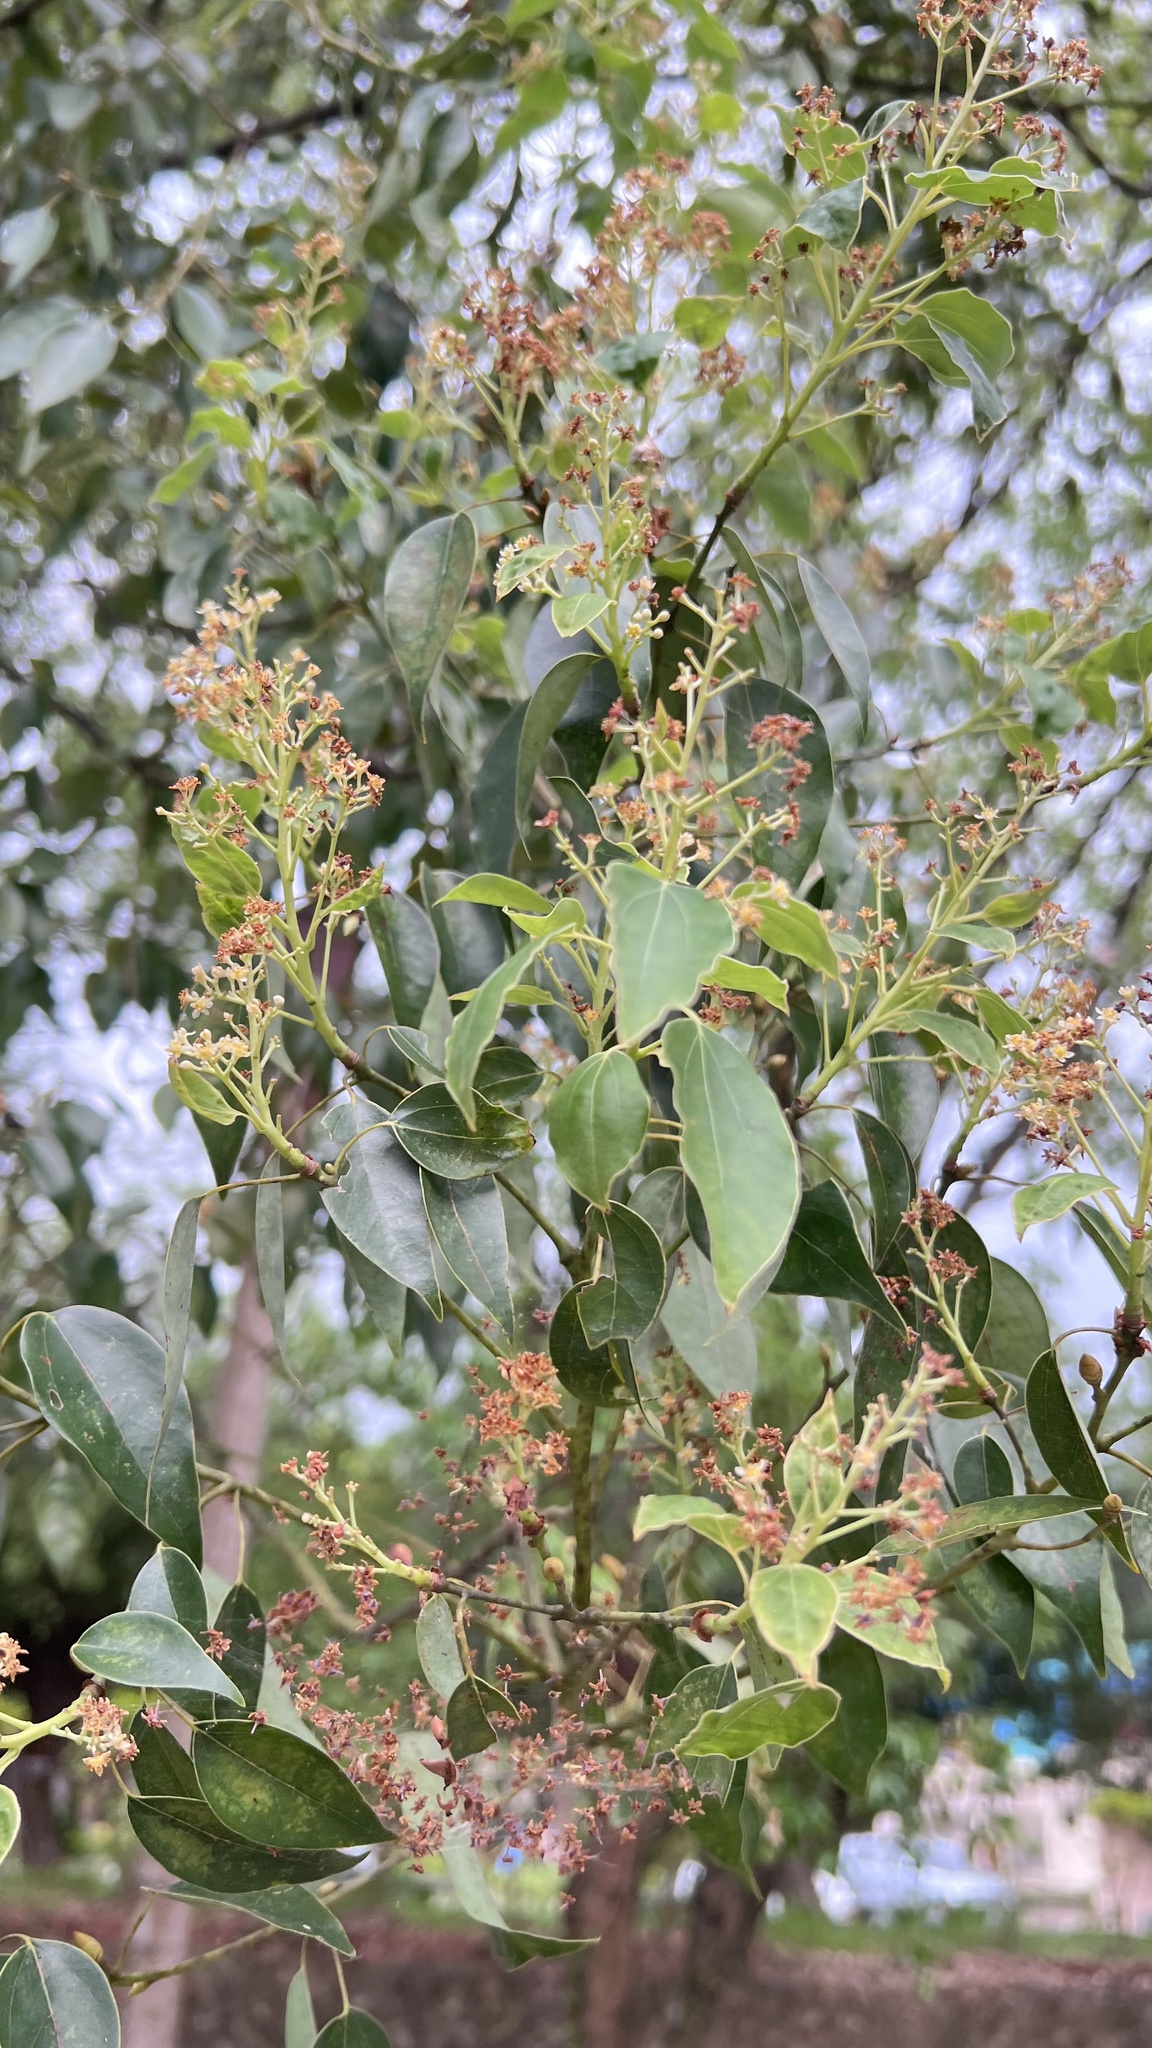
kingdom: Plantae
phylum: Tracheophyta
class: Magnoliopsida
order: Laurales
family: Lauraceae
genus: Cinnamomum
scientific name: Cinnamomum camphora
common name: Camphortree
